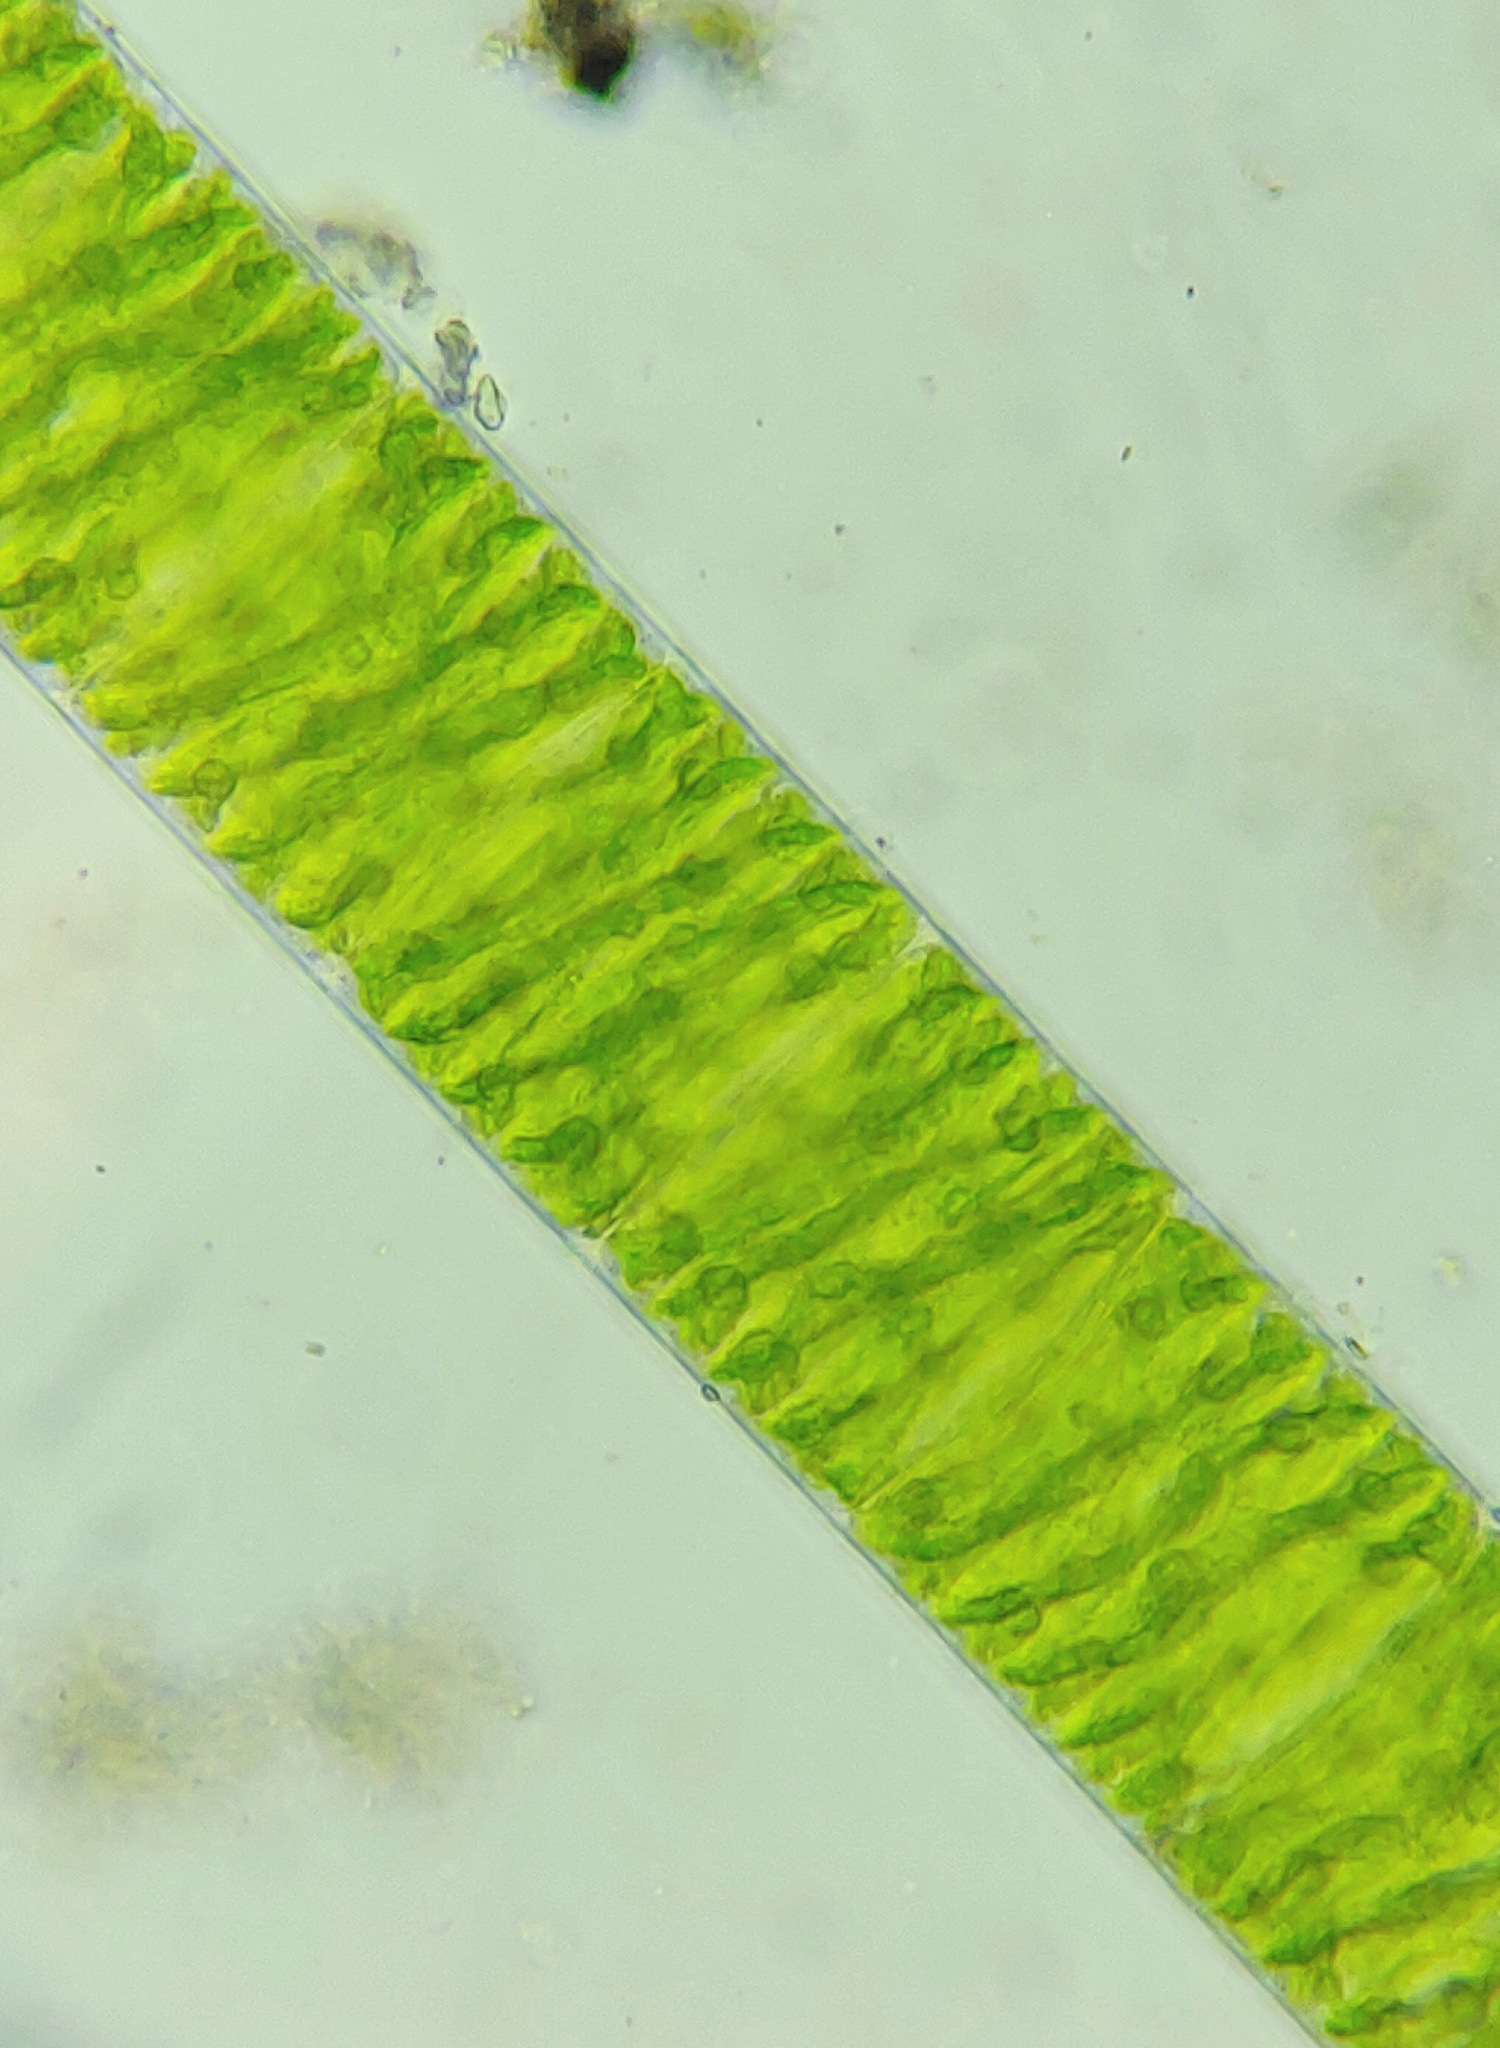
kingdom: Plantae
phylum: Charophyta
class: Zygnematophyceae
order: Zygnematales
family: Zygnemataceae
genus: Spirogyra
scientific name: Spirogyra
